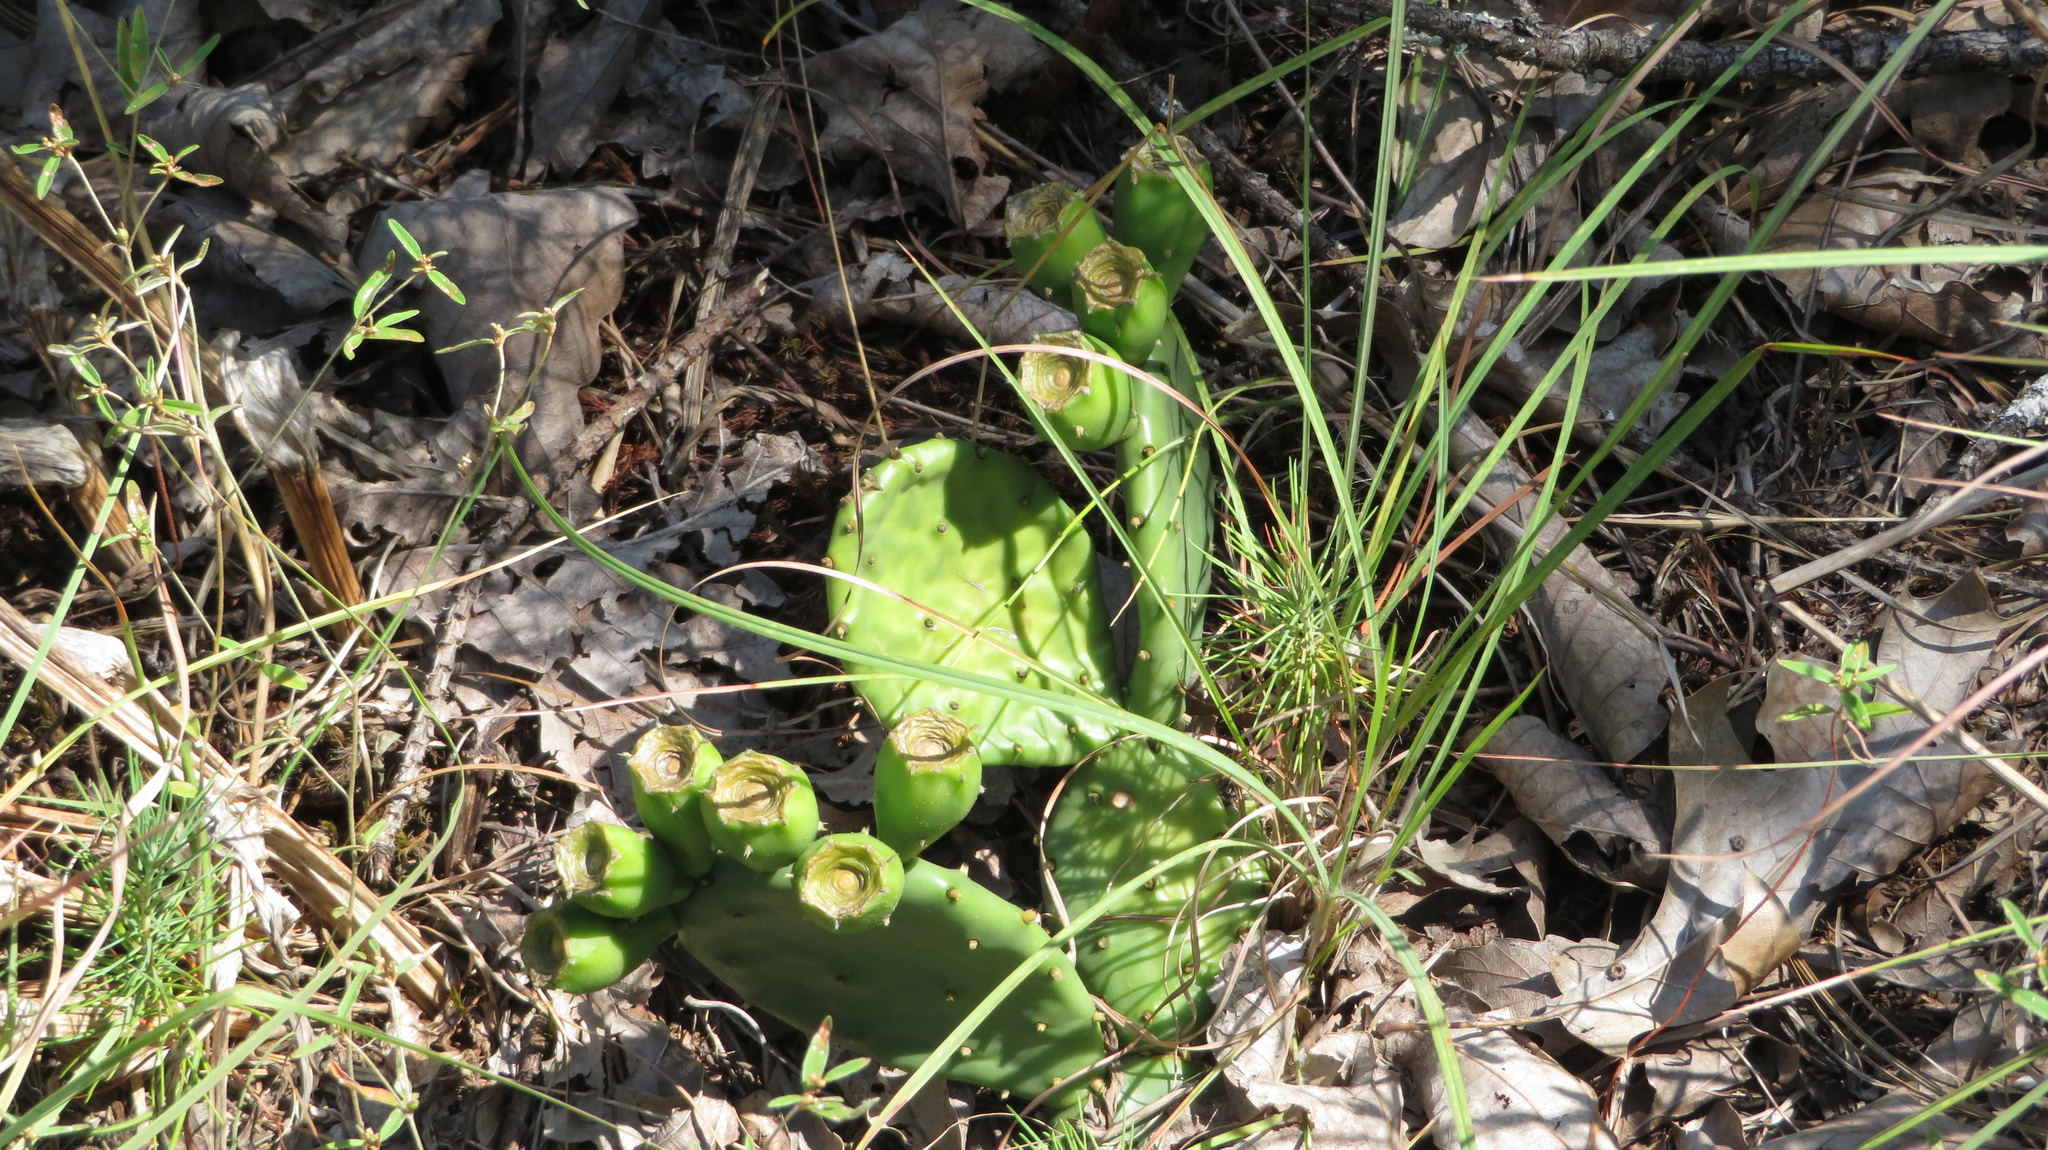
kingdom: Plantae
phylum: Tracheophyta
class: Magnoliopsida
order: Caryophyllales
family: Cactaceae
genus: Opuntia
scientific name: Opuntia mesacantha
